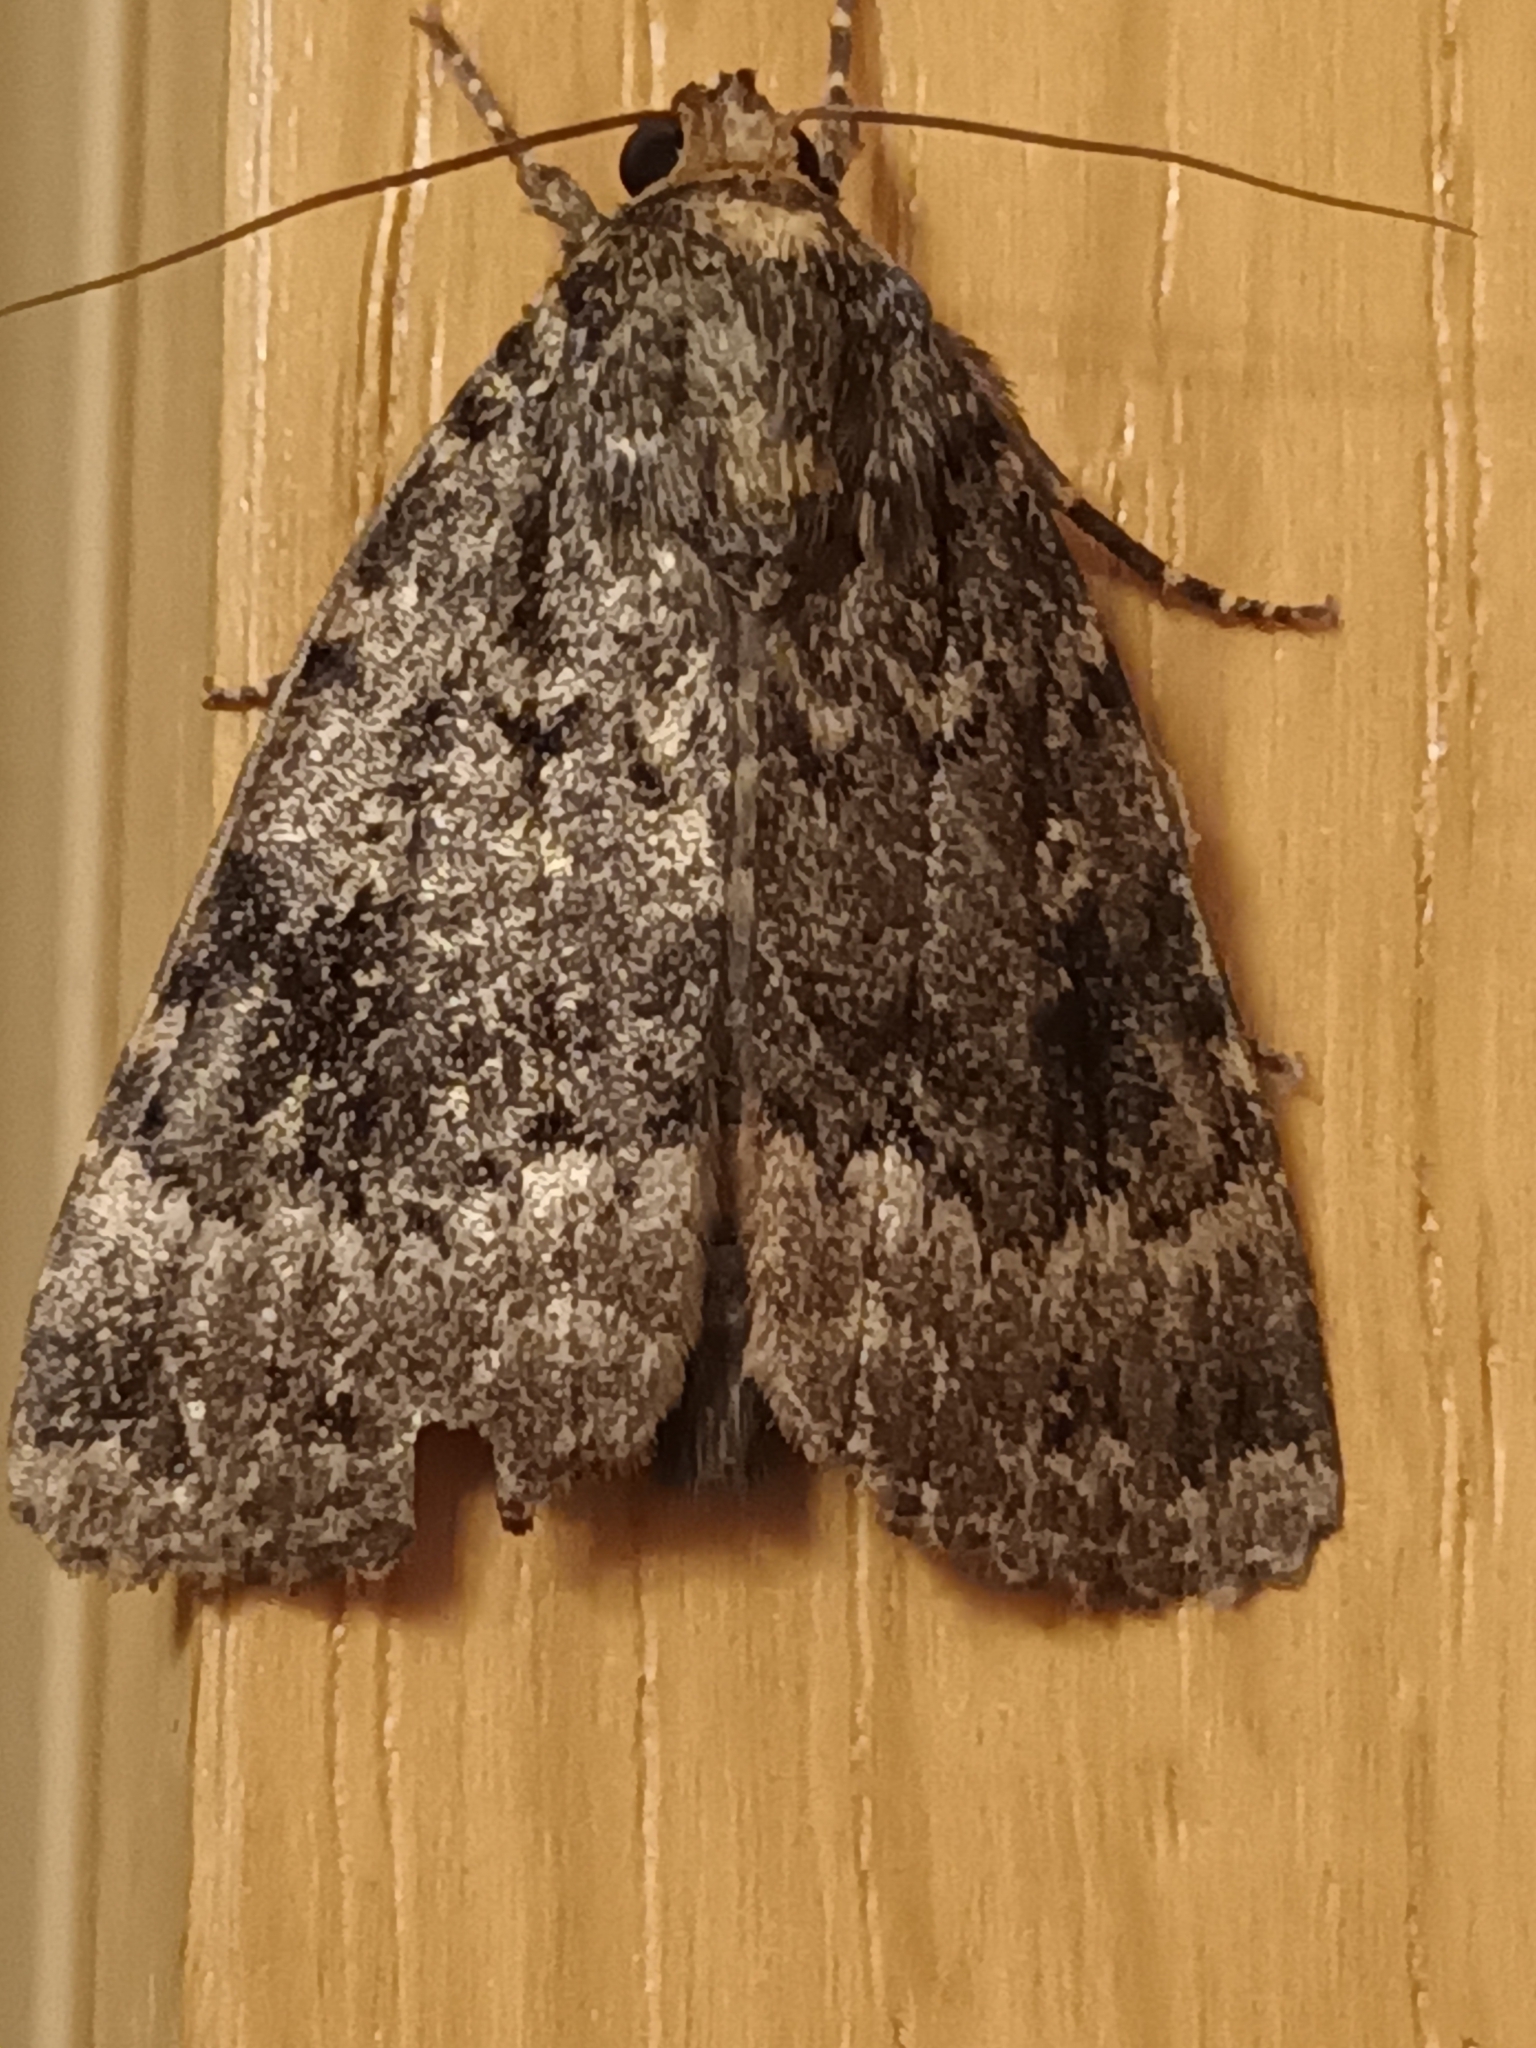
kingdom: Animalia
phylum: Arthropoda
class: Insecta
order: Lepidoptera
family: Noctuidae
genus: Amphipyra
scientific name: Amphipyra berbera
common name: Svensson's copper underwing
